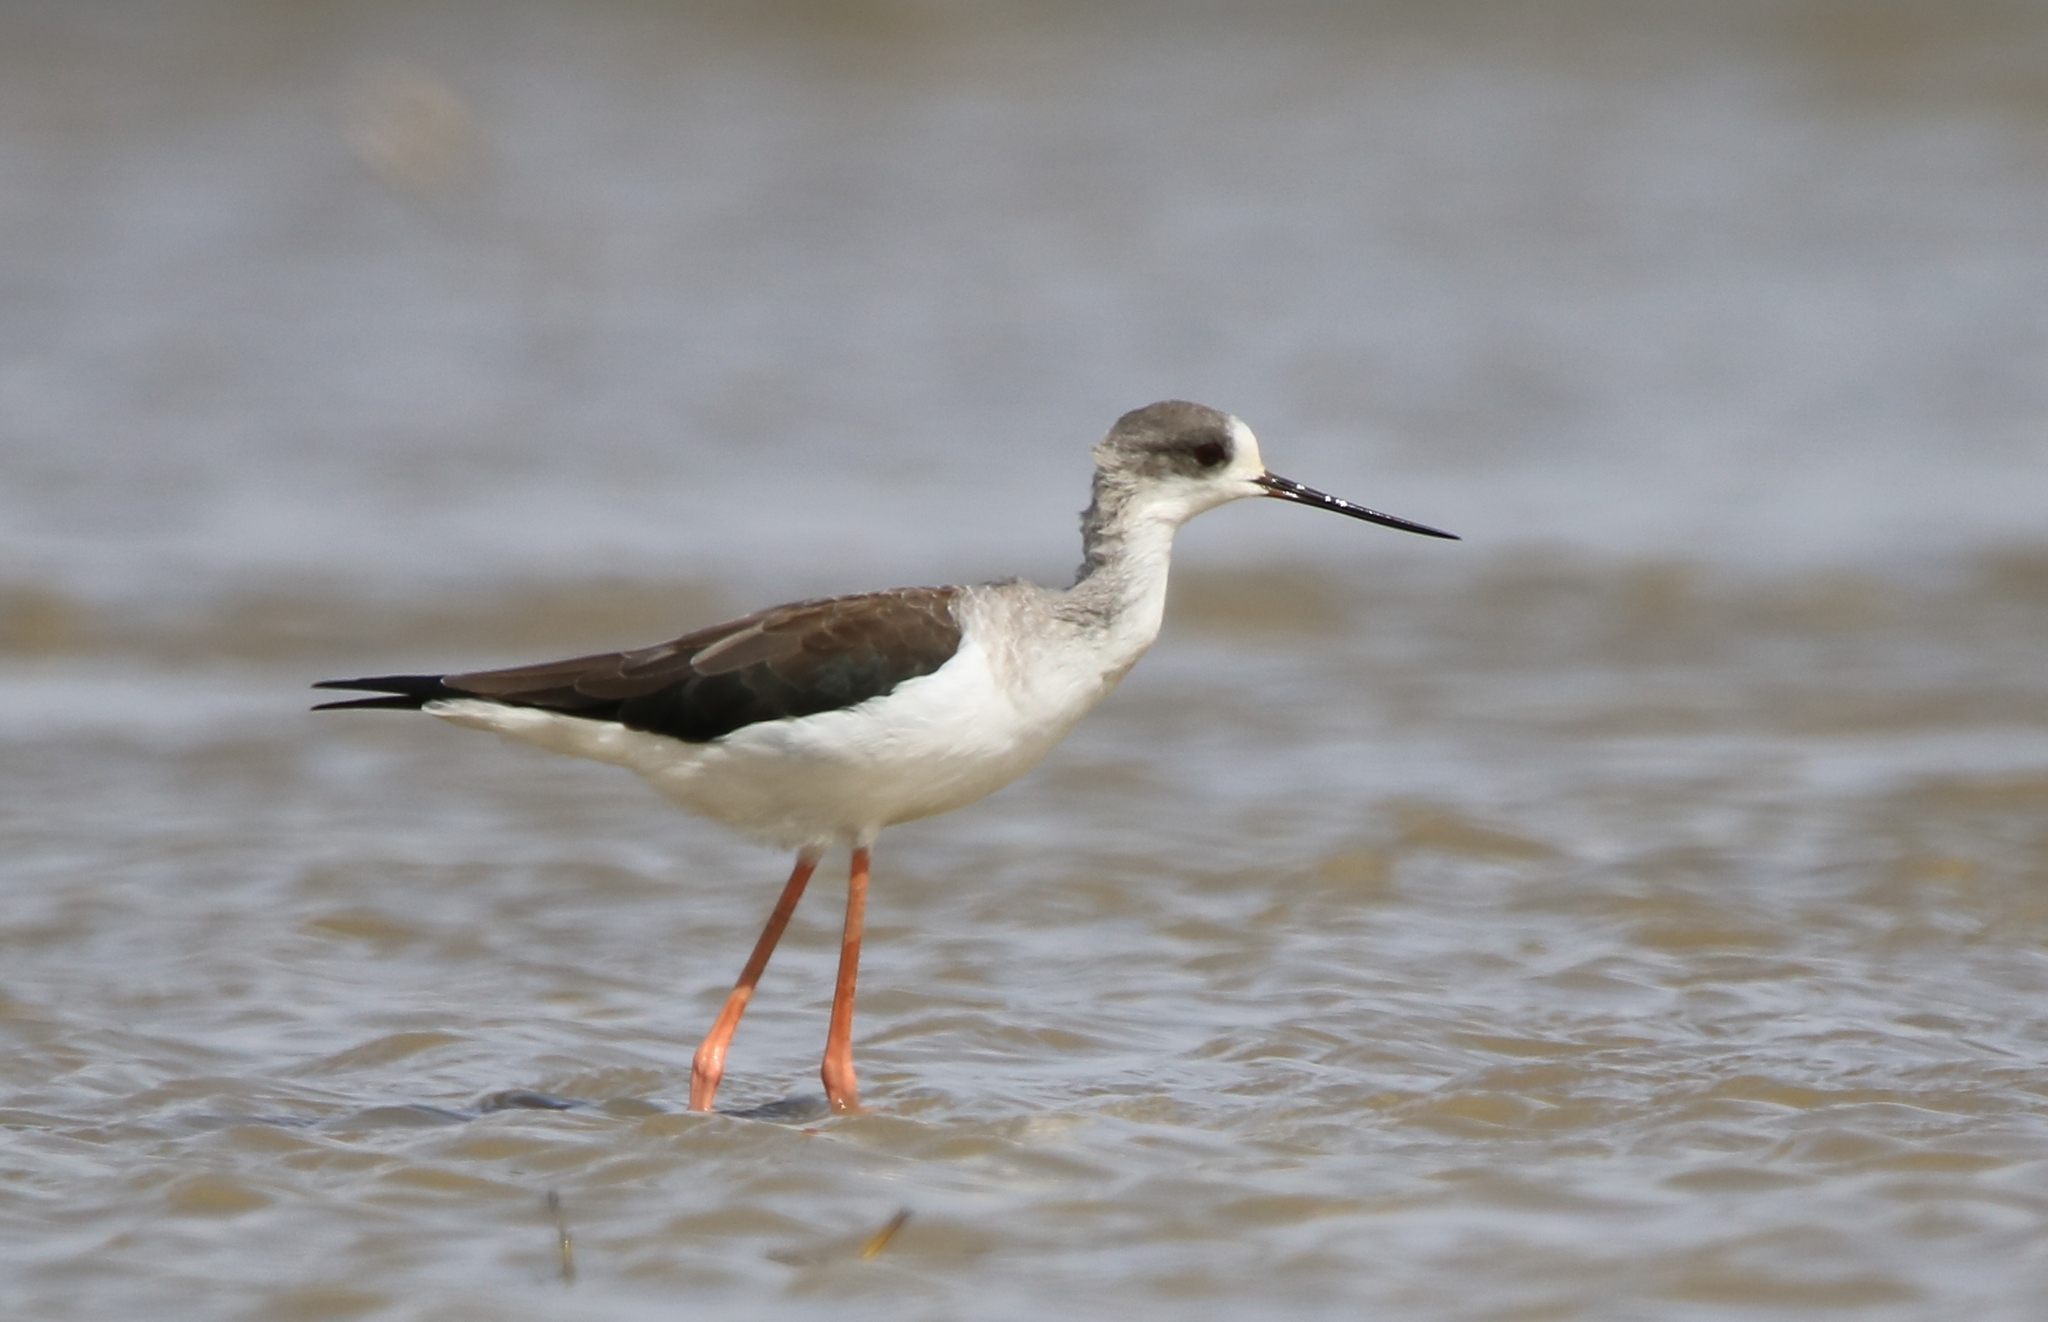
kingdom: Animalia
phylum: Chordata
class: Aves
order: Charadriiformes
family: Recurvirostridae
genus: Himantopus
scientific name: Himantopus himantopus
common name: Black-winged stilt
